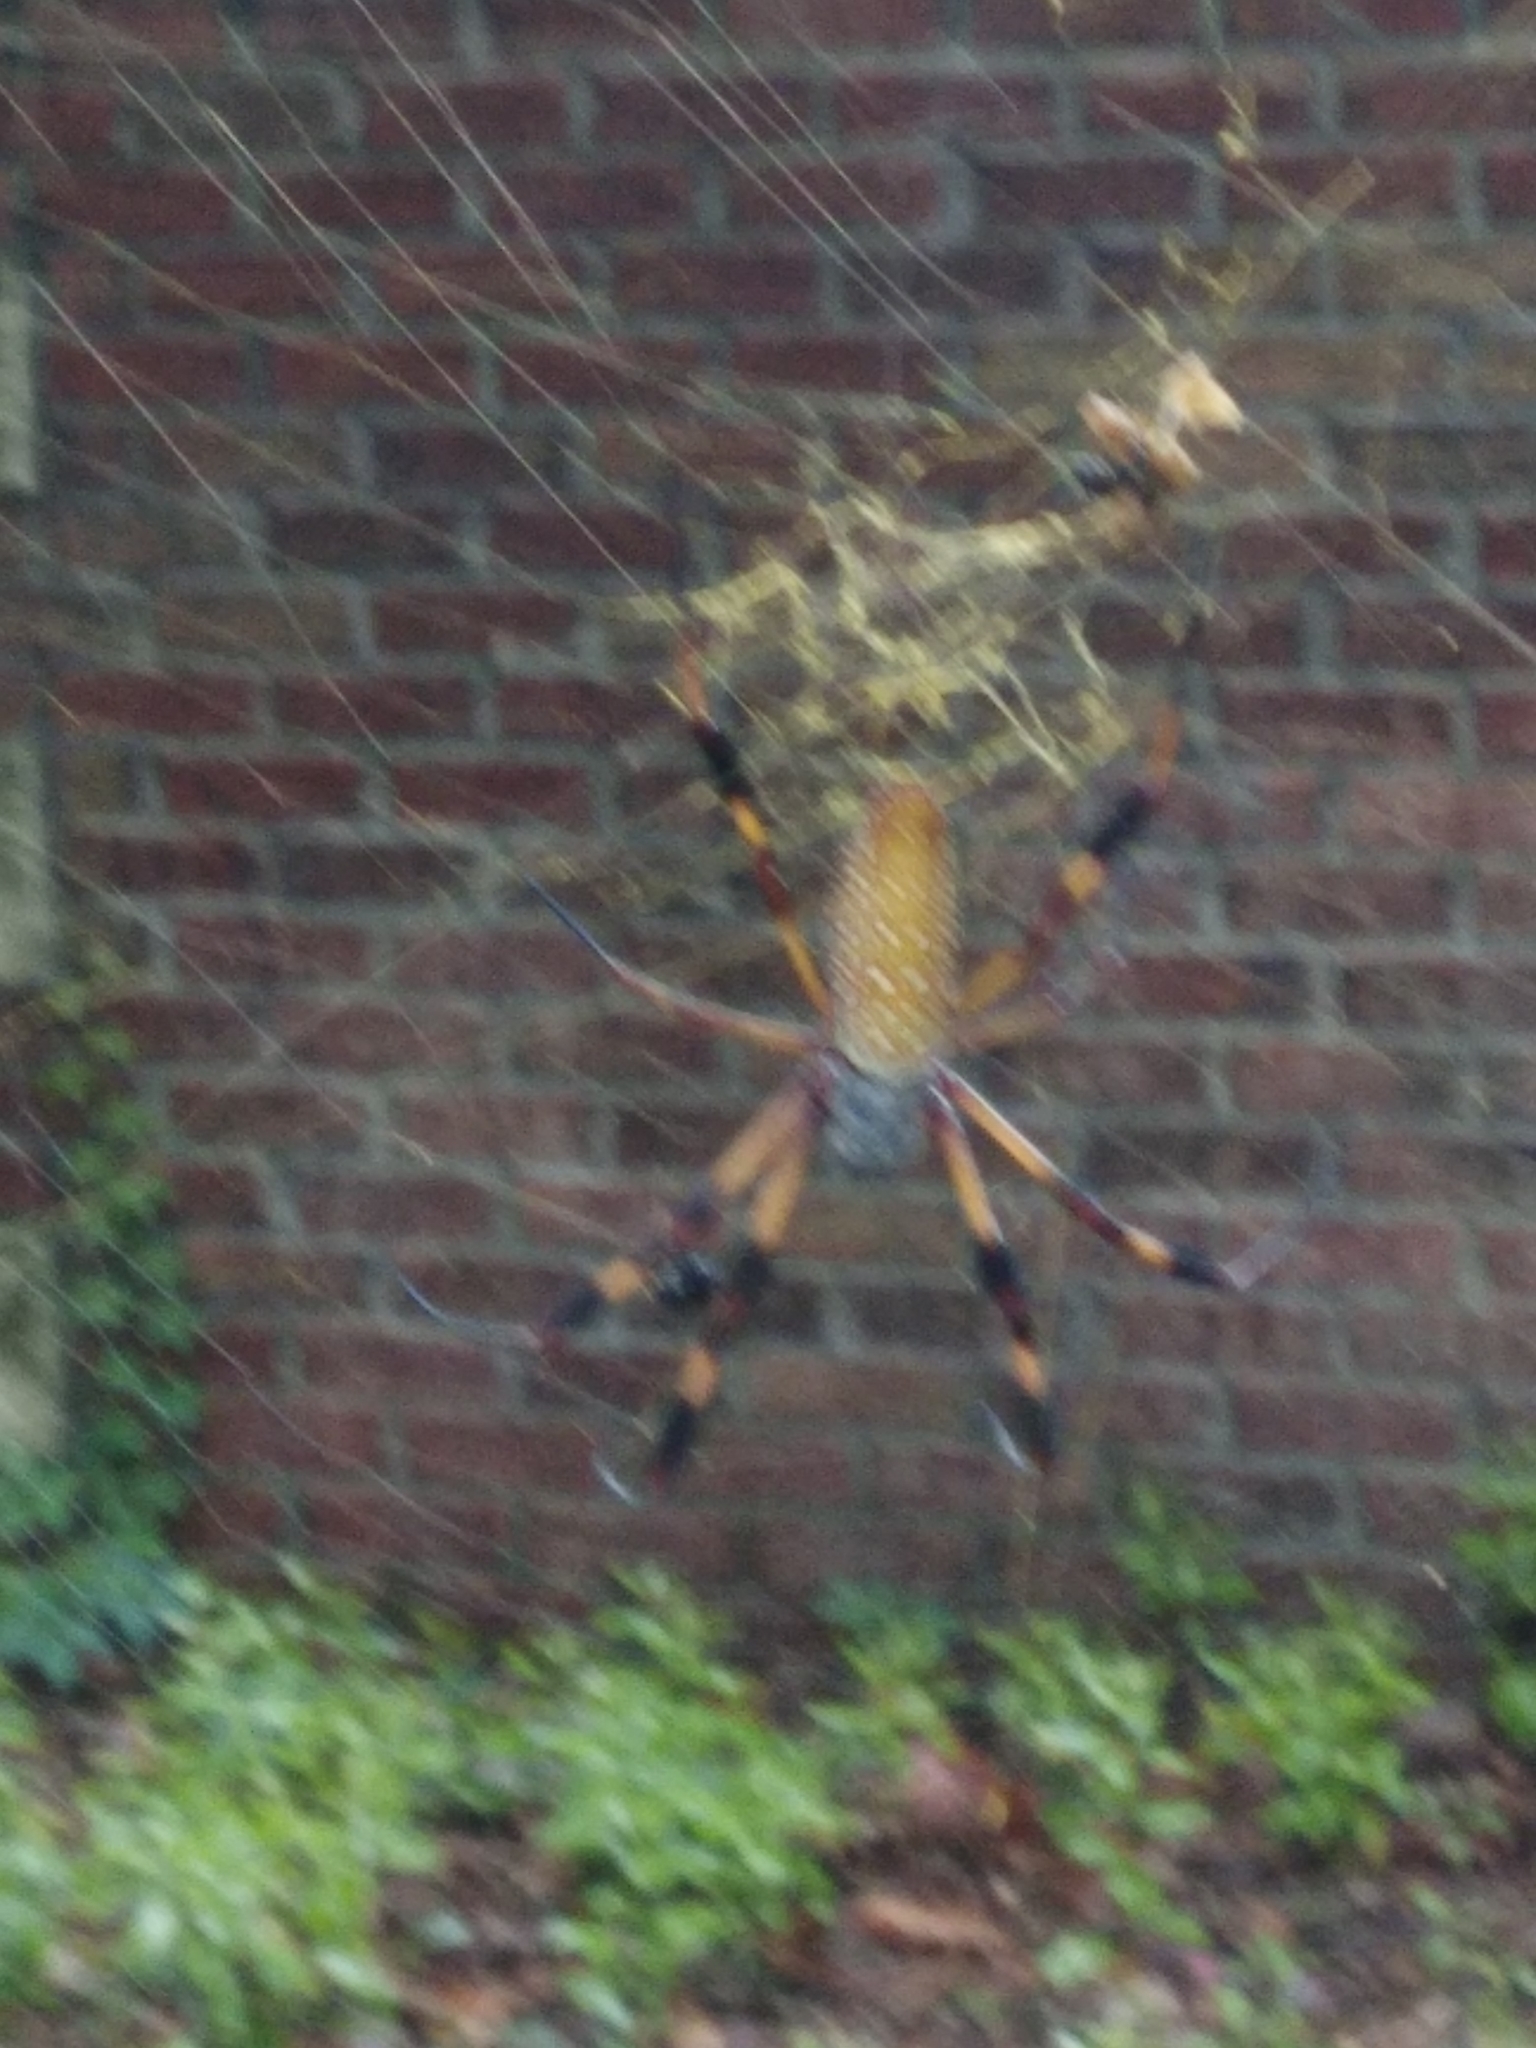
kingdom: Animalia
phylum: Arthropoda
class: Arachnida
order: Araneae
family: Araneidae
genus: Trichonephila
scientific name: Trichonephila clavipes
